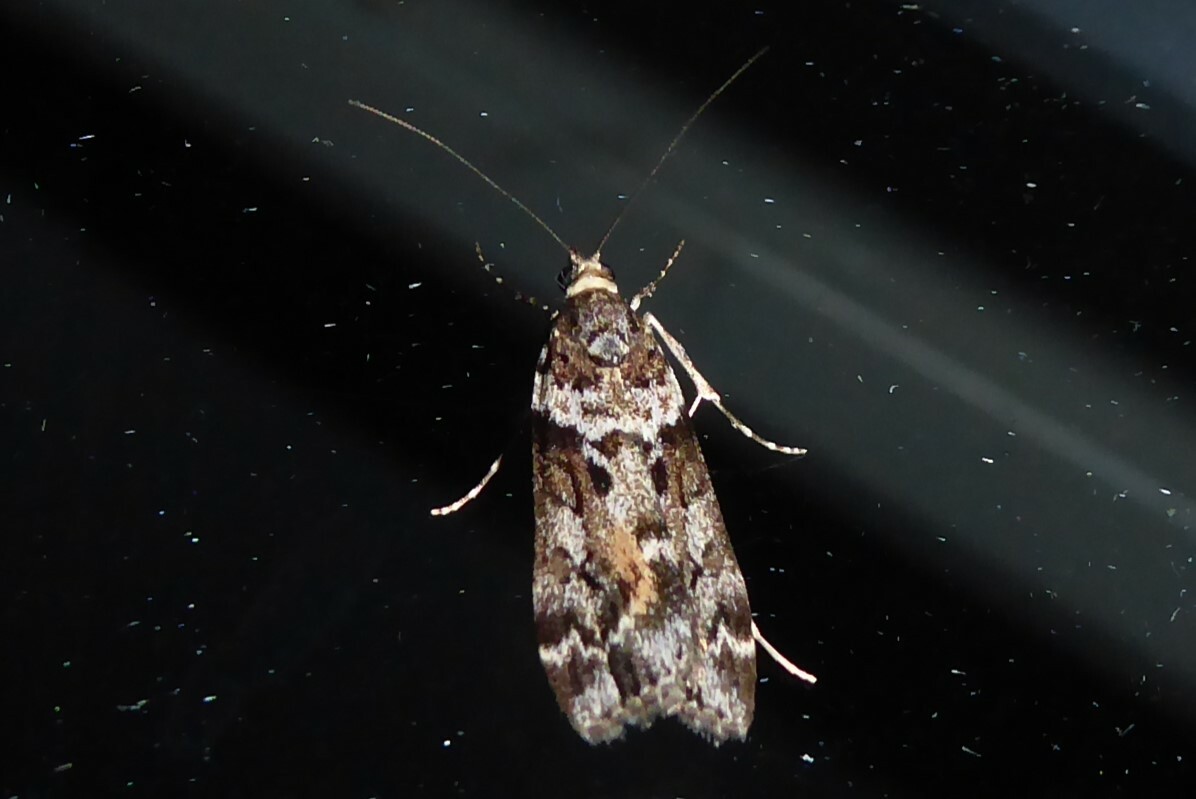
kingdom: Animalia
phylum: Arthropoda
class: Insecta
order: Lepidoptera
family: Crambidae
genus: Eudonia
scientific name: Eudonia submarginalis
